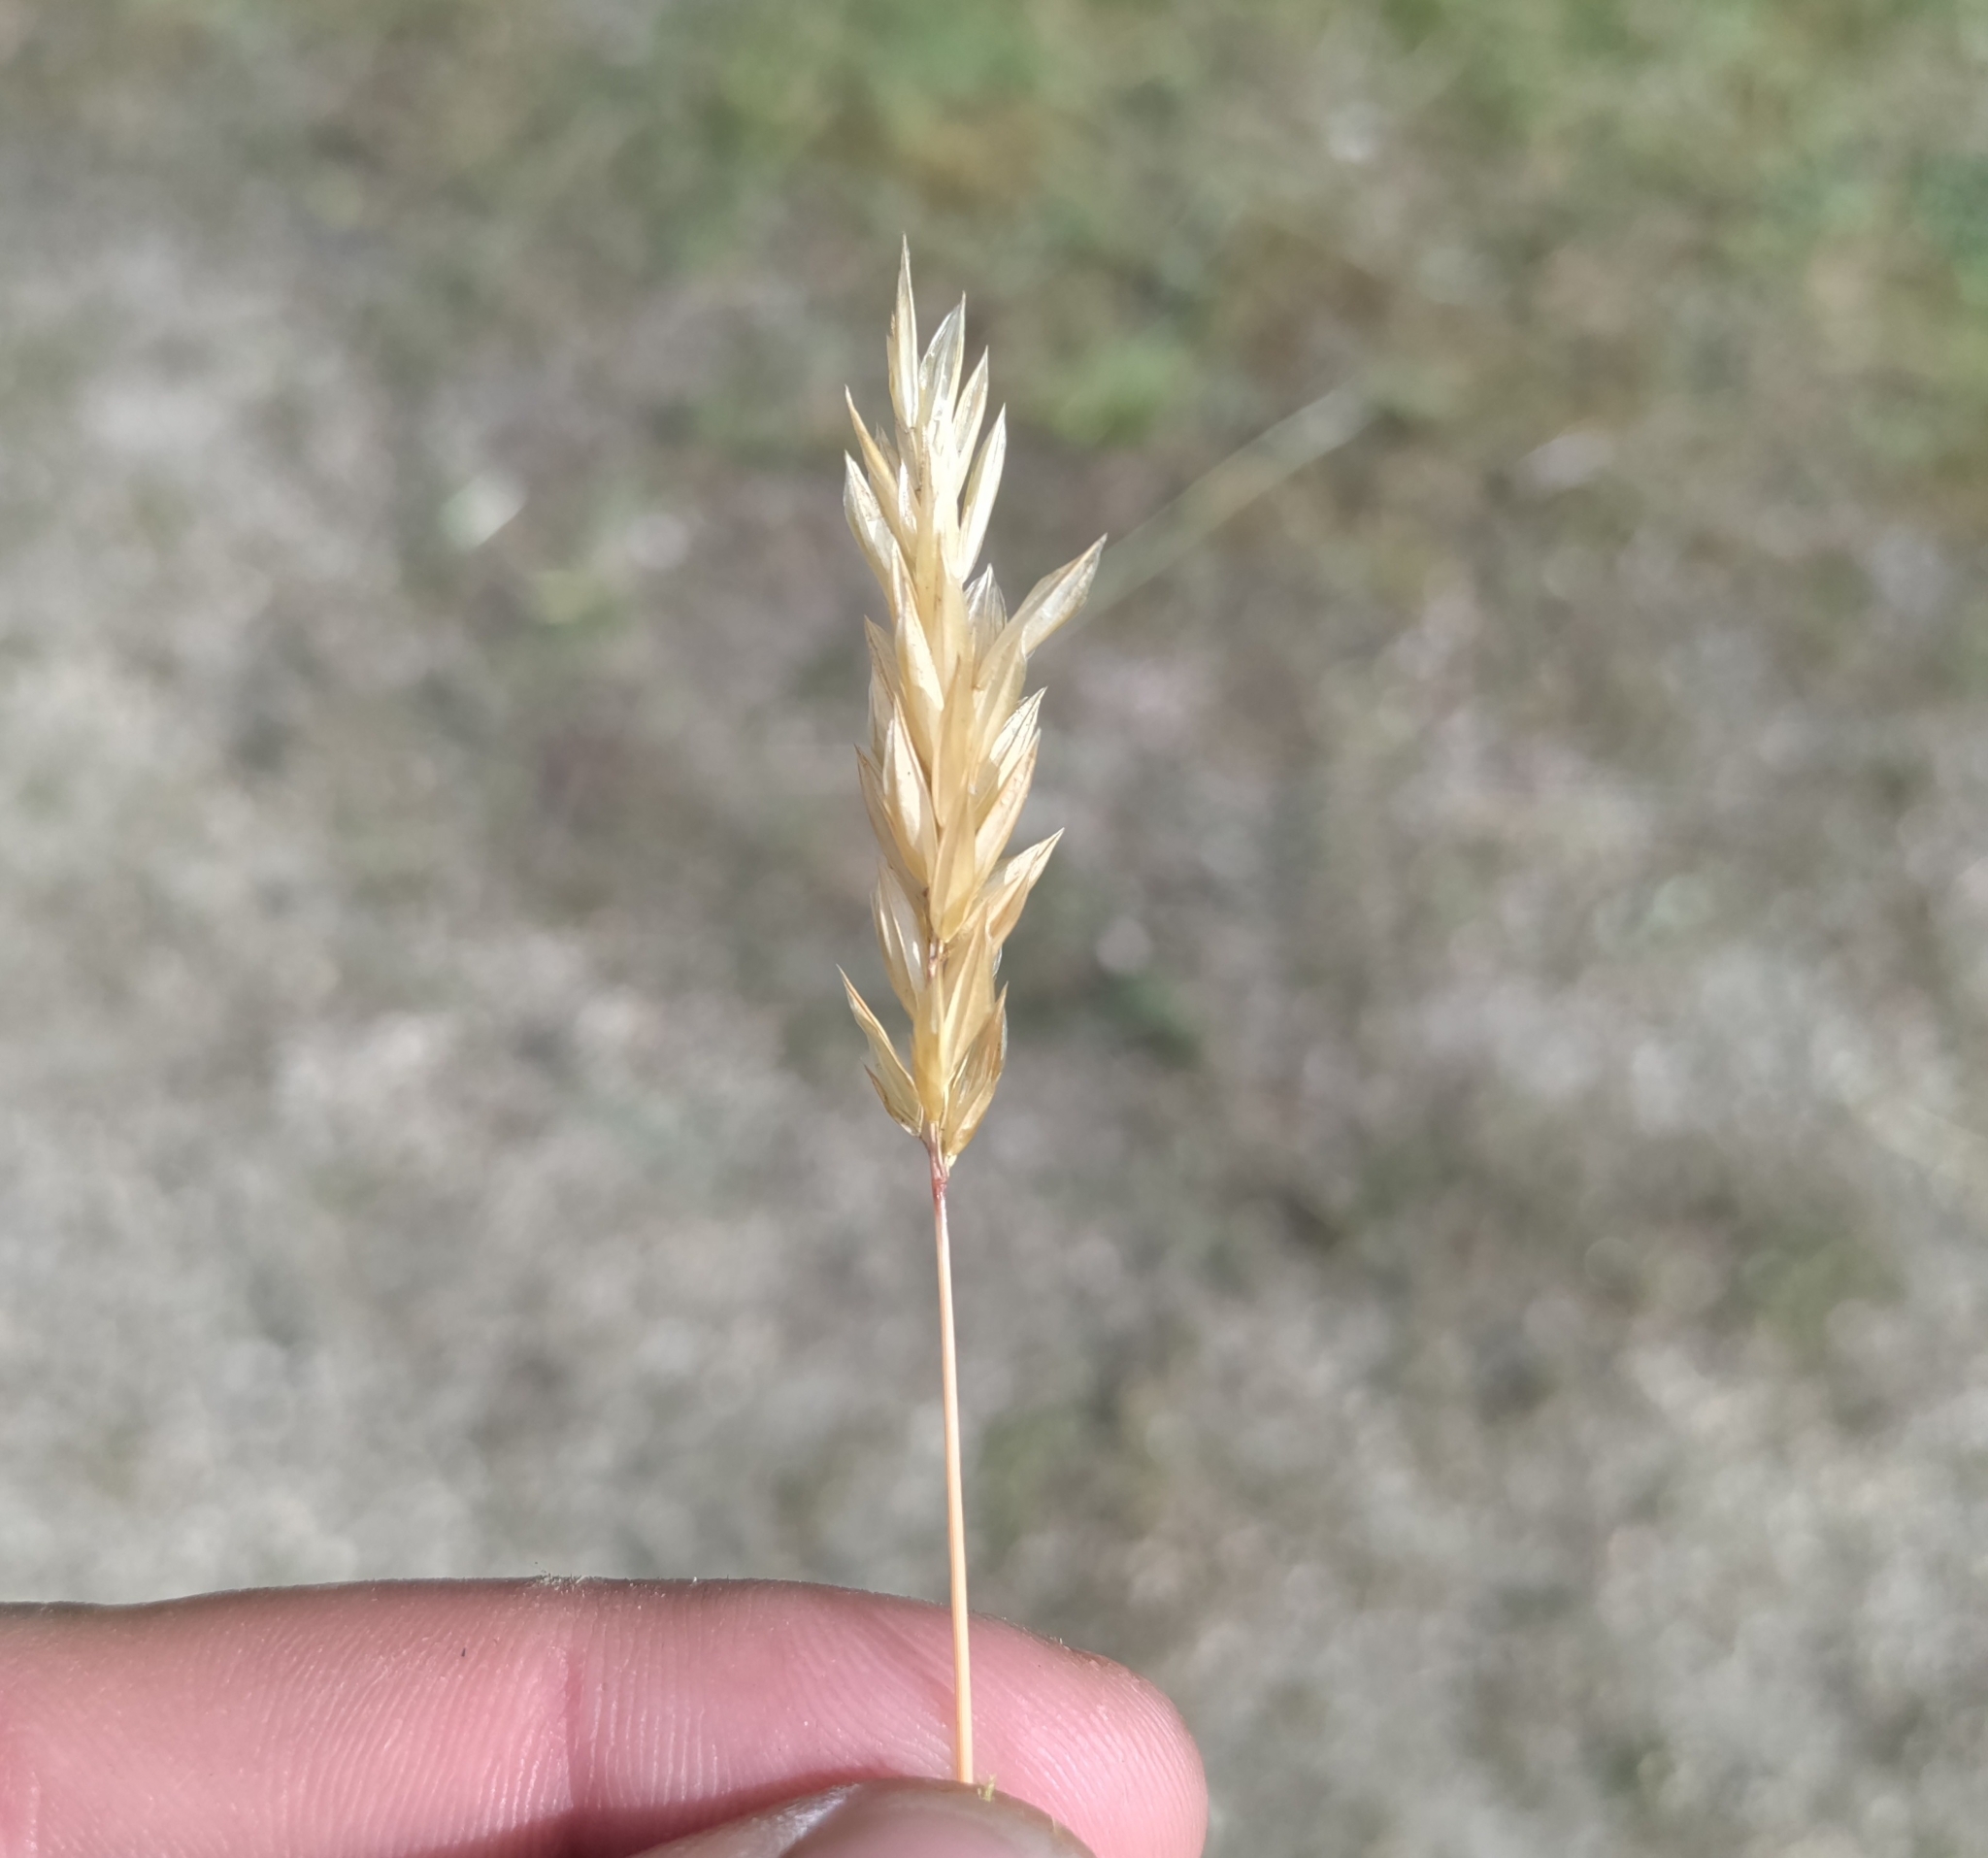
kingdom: Plantae
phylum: Tracheophyta
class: Liliopsida
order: Poales
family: Poaceae
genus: Anthoxanthum
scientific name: Anthoxanthum odoratum
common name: Sweet vernalgrass
